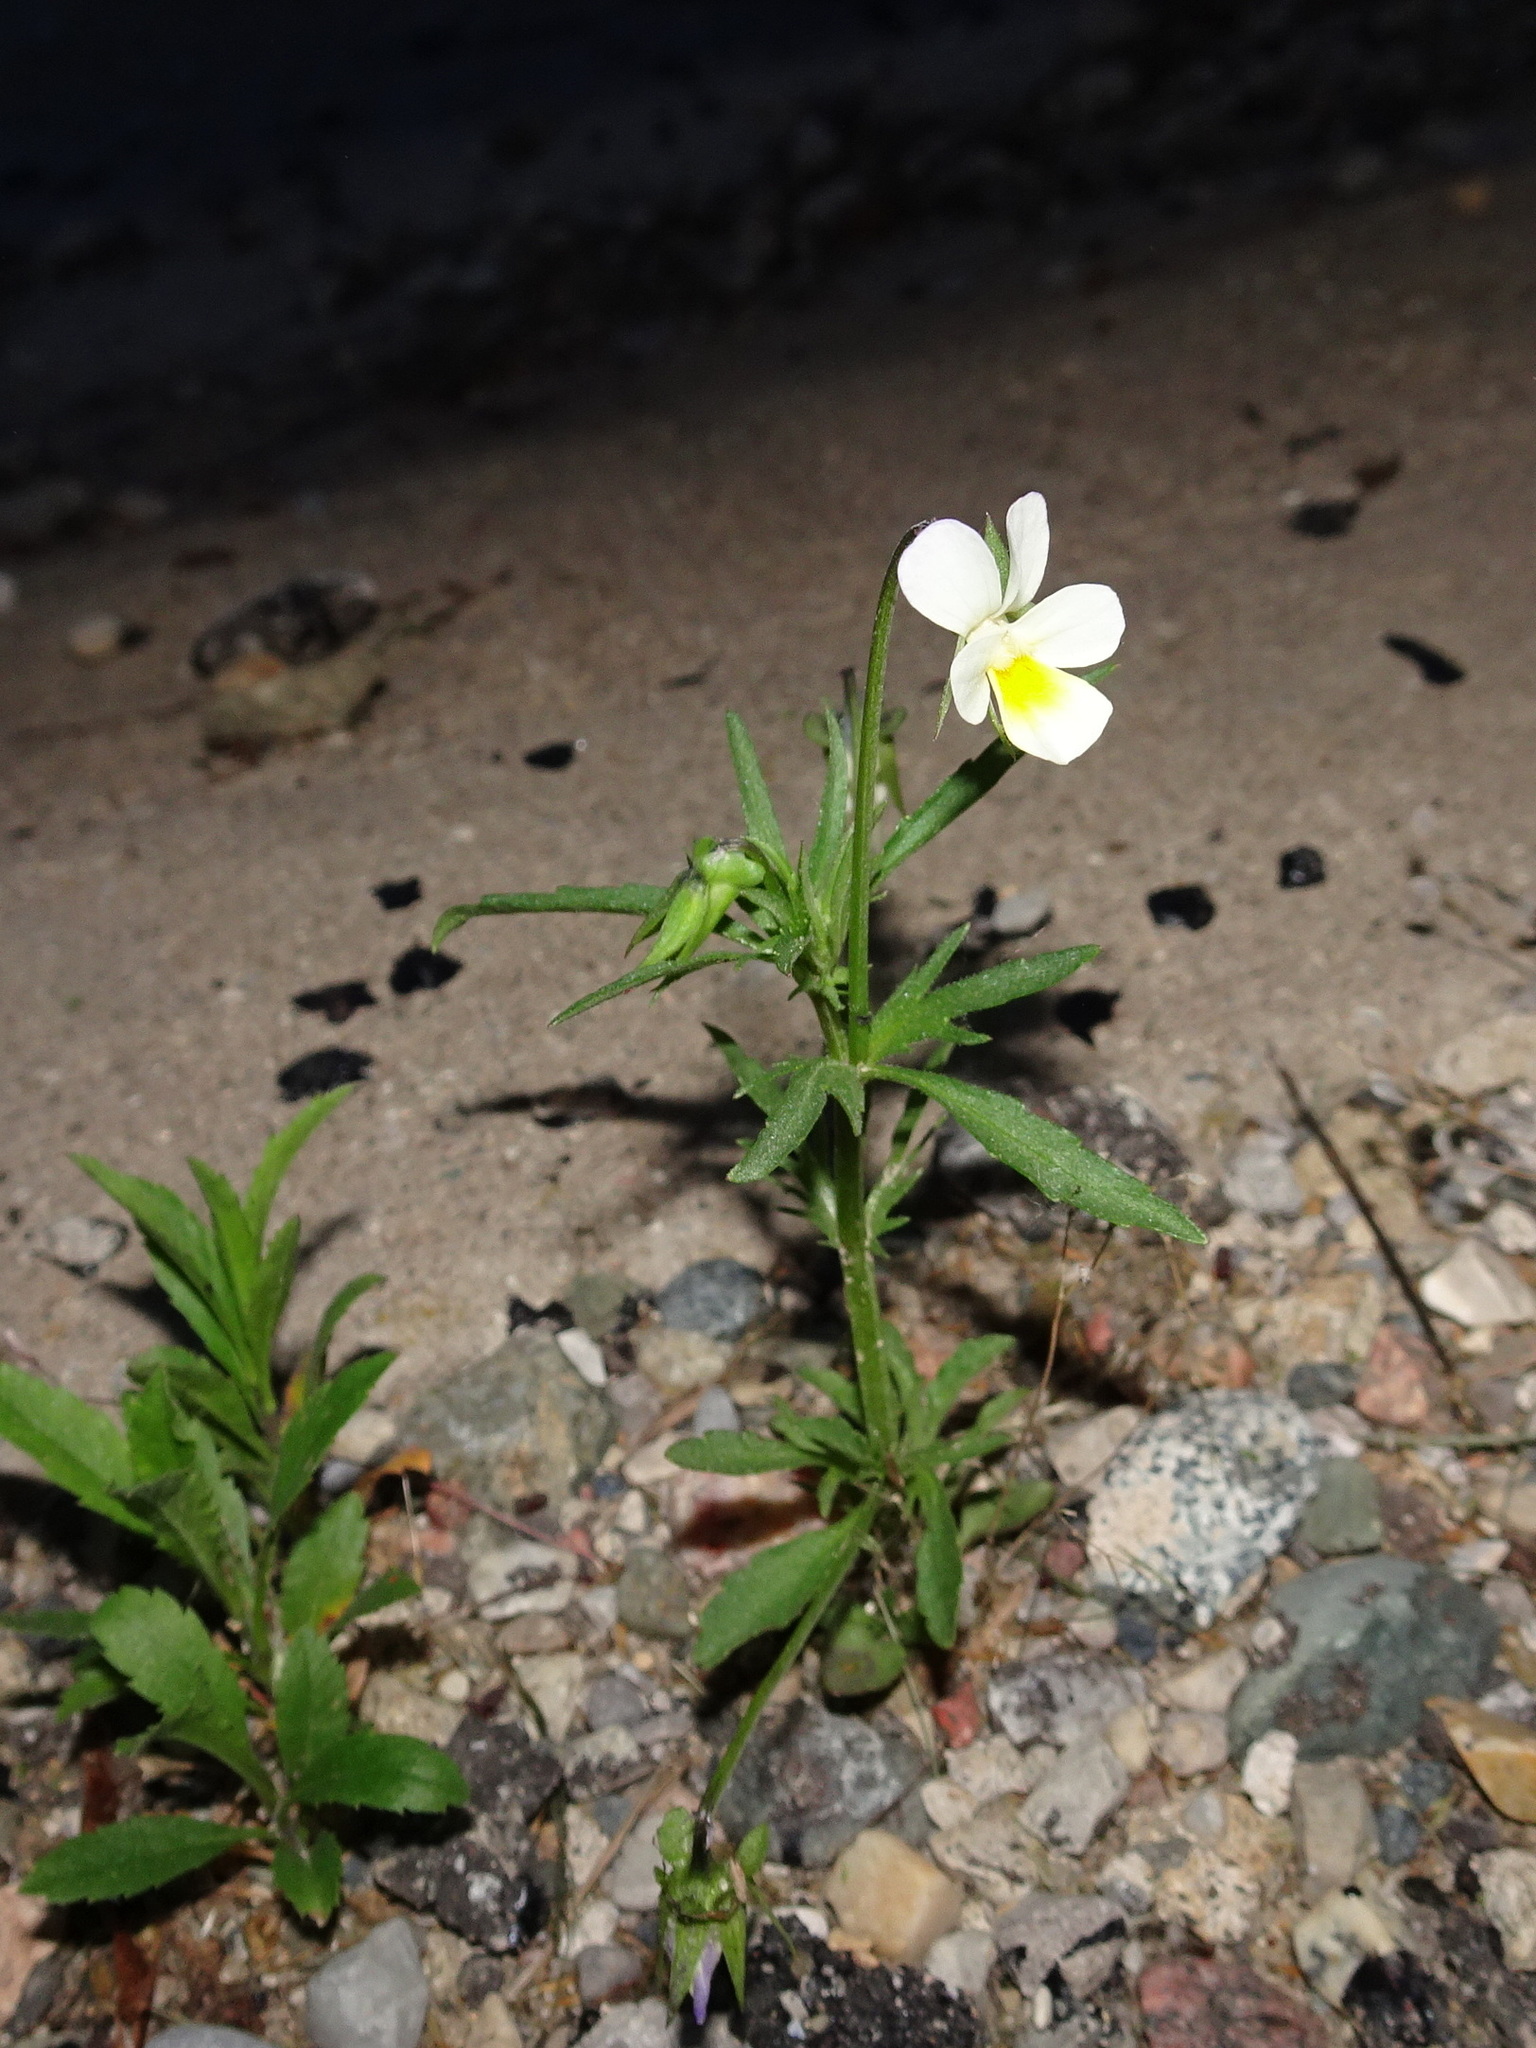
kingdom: Plantae
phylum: Tracheophyta
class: Magnoliopsida
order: Malpighiales
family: Violaceae
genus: Viola
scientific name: Viola arvensis
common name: Field pansy
